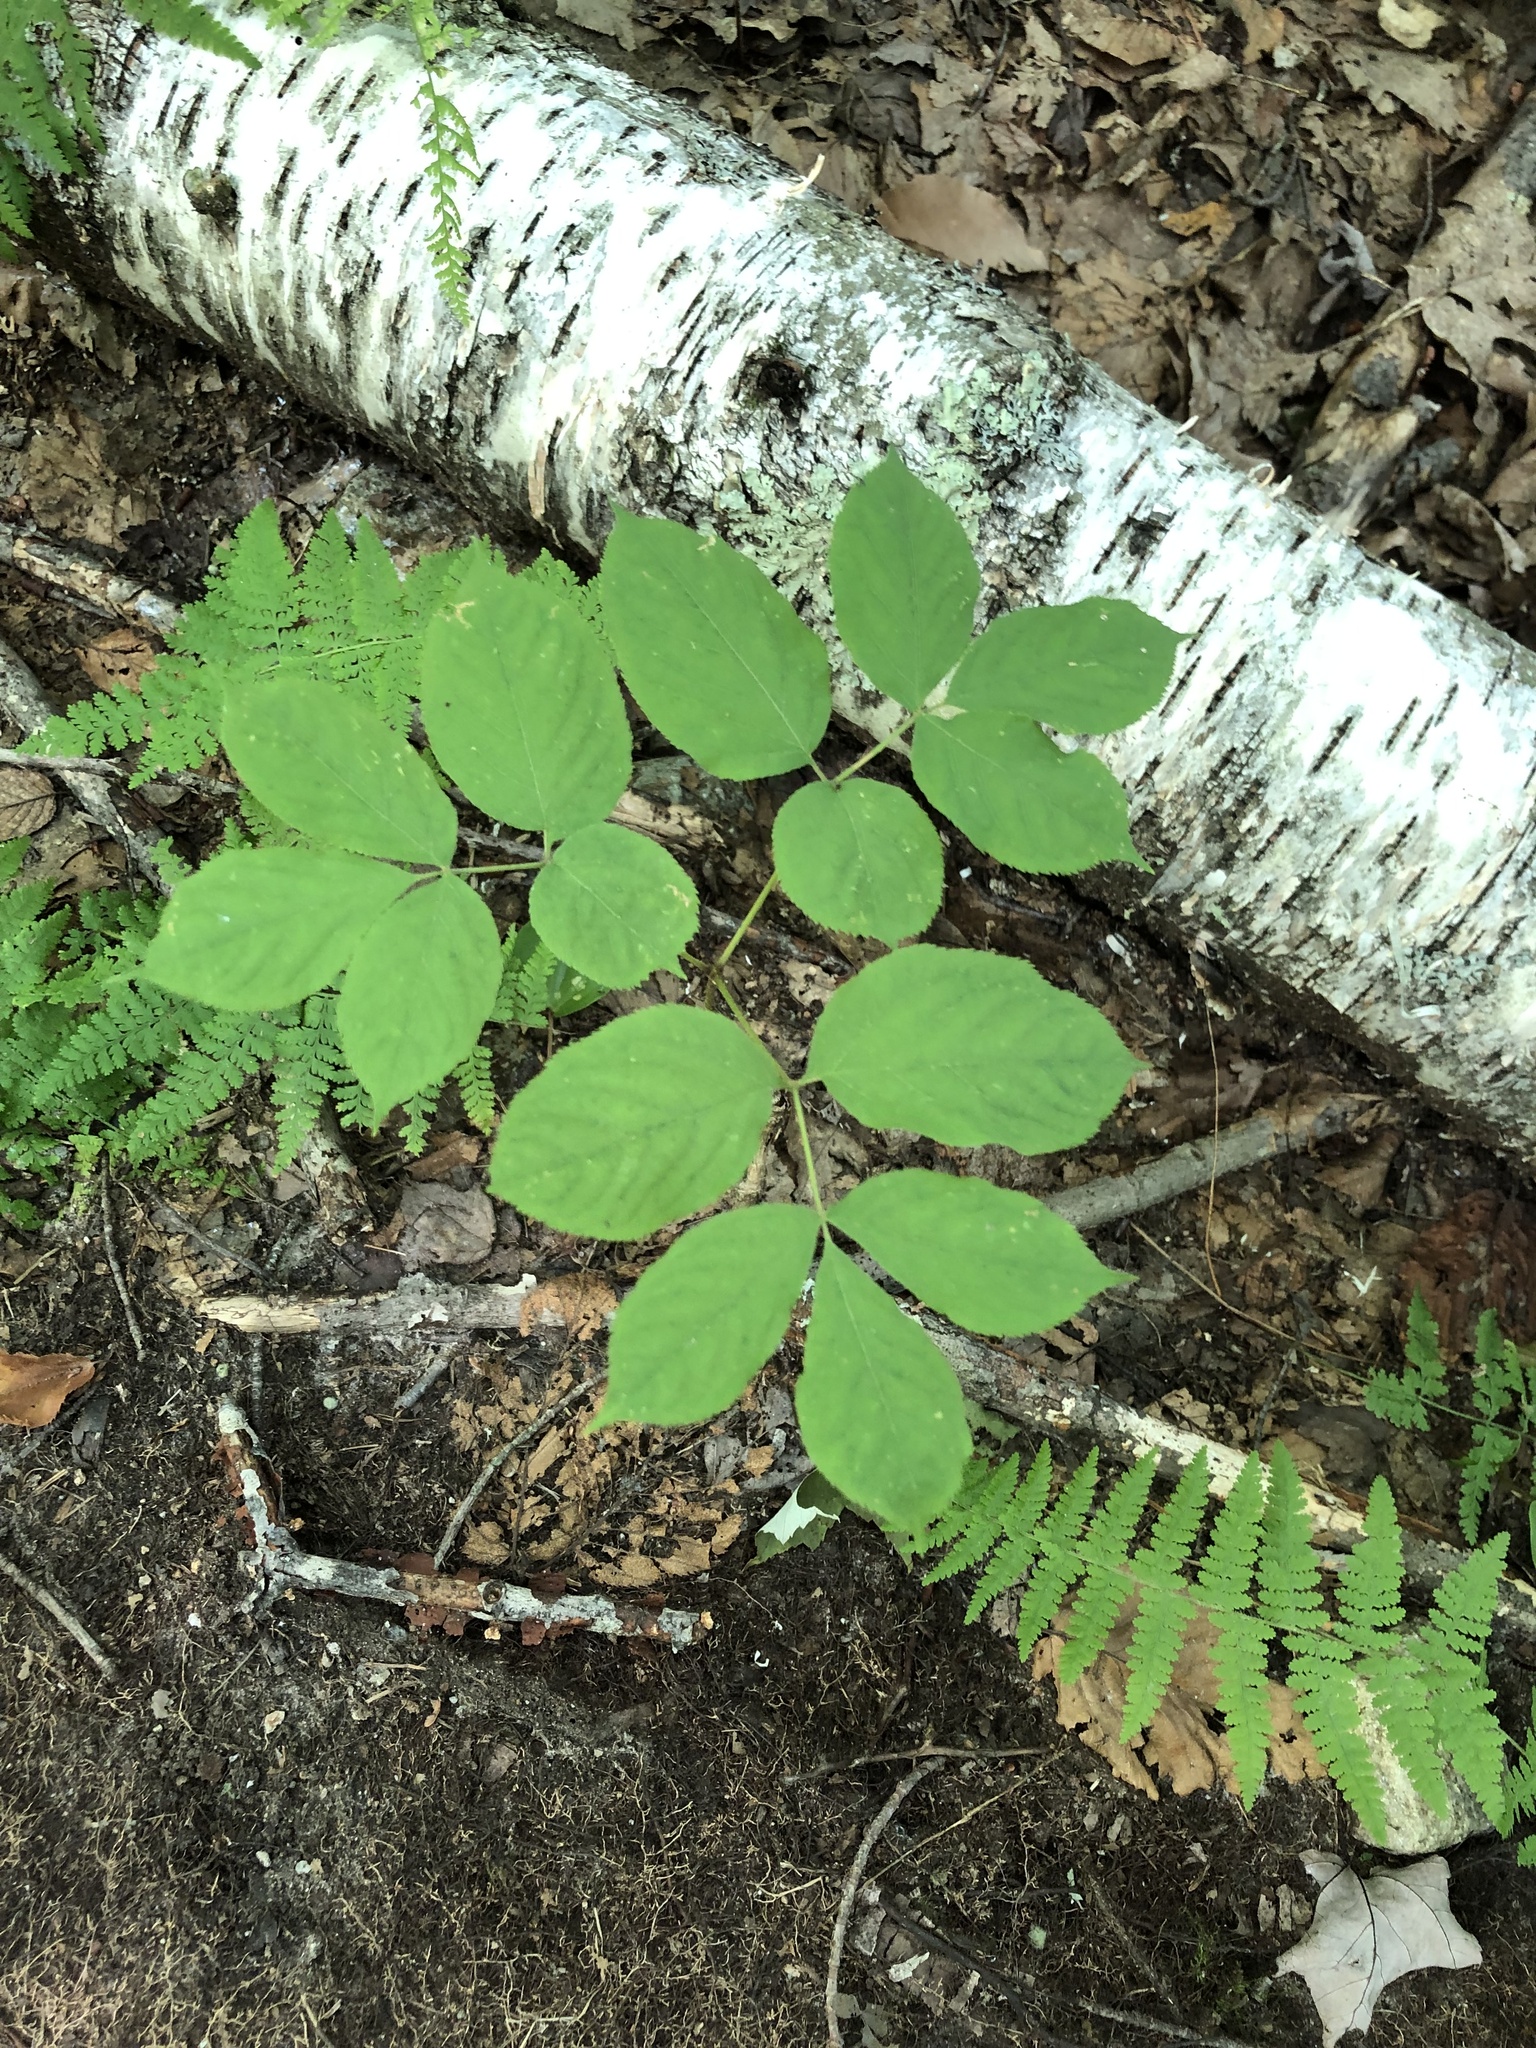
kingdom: Plantae
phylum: Tracheophyta
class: Magnoliopsida
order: Apiales
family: Araliaceae
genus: Aralia
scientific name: Aralia nudicaulis
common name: Wild sarsaparilla
